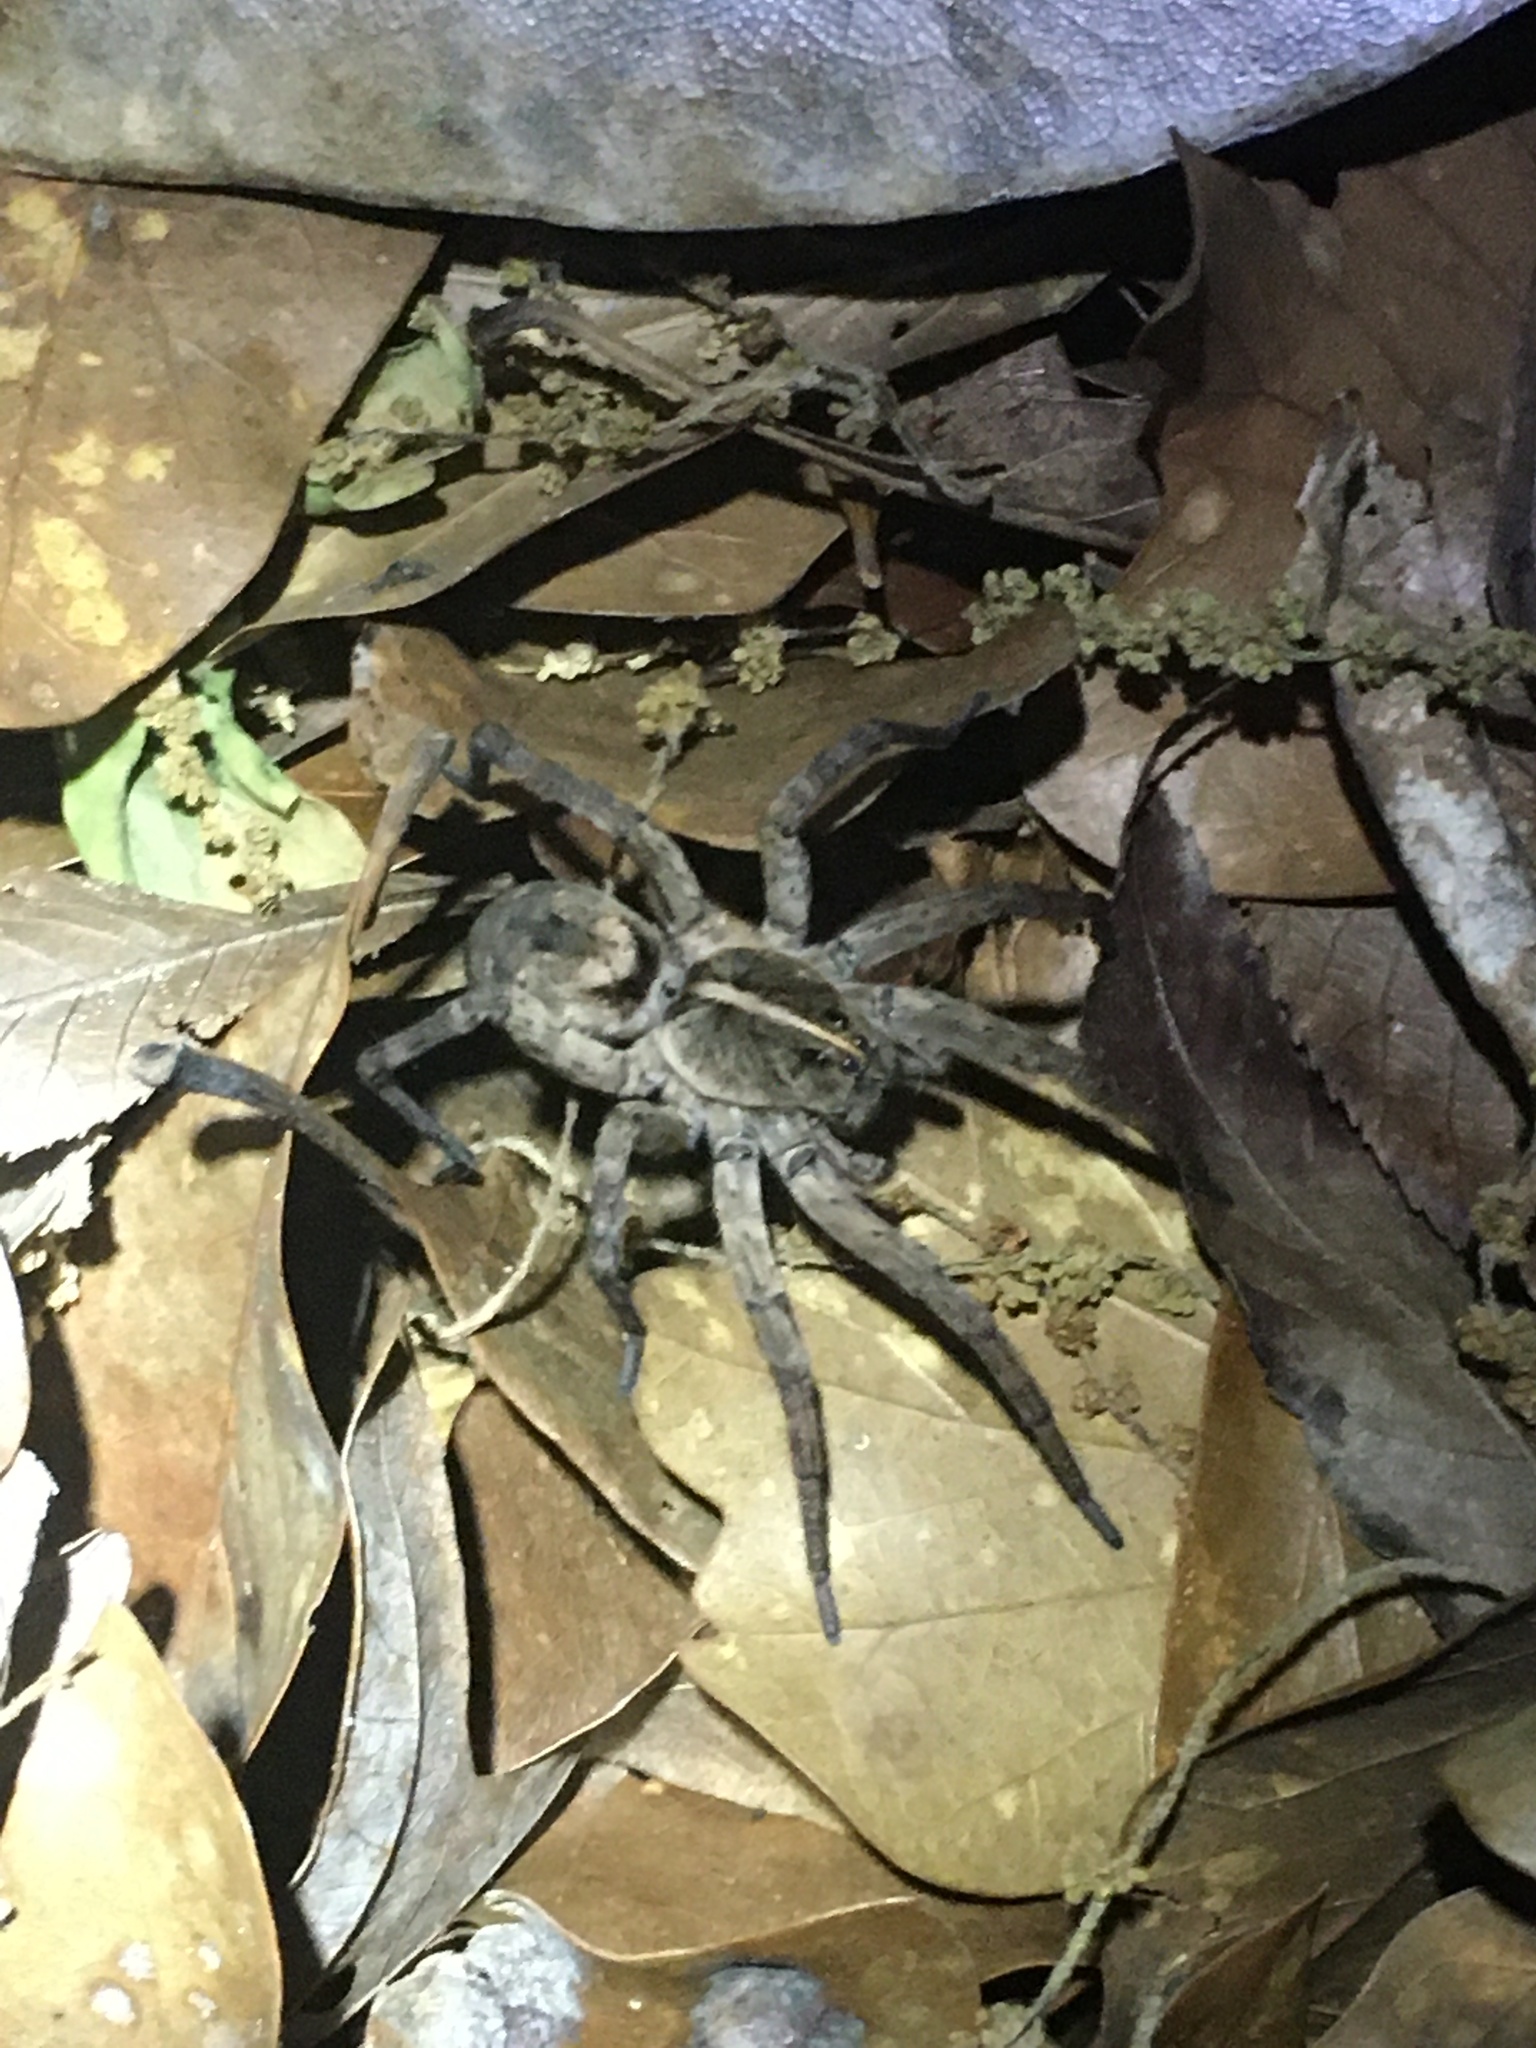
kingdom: Animalia
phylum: Arthropoda
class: Arachnida
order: Araneae
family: Lycosidae
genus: Tigrosa
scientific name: Tigrosa georgicola
